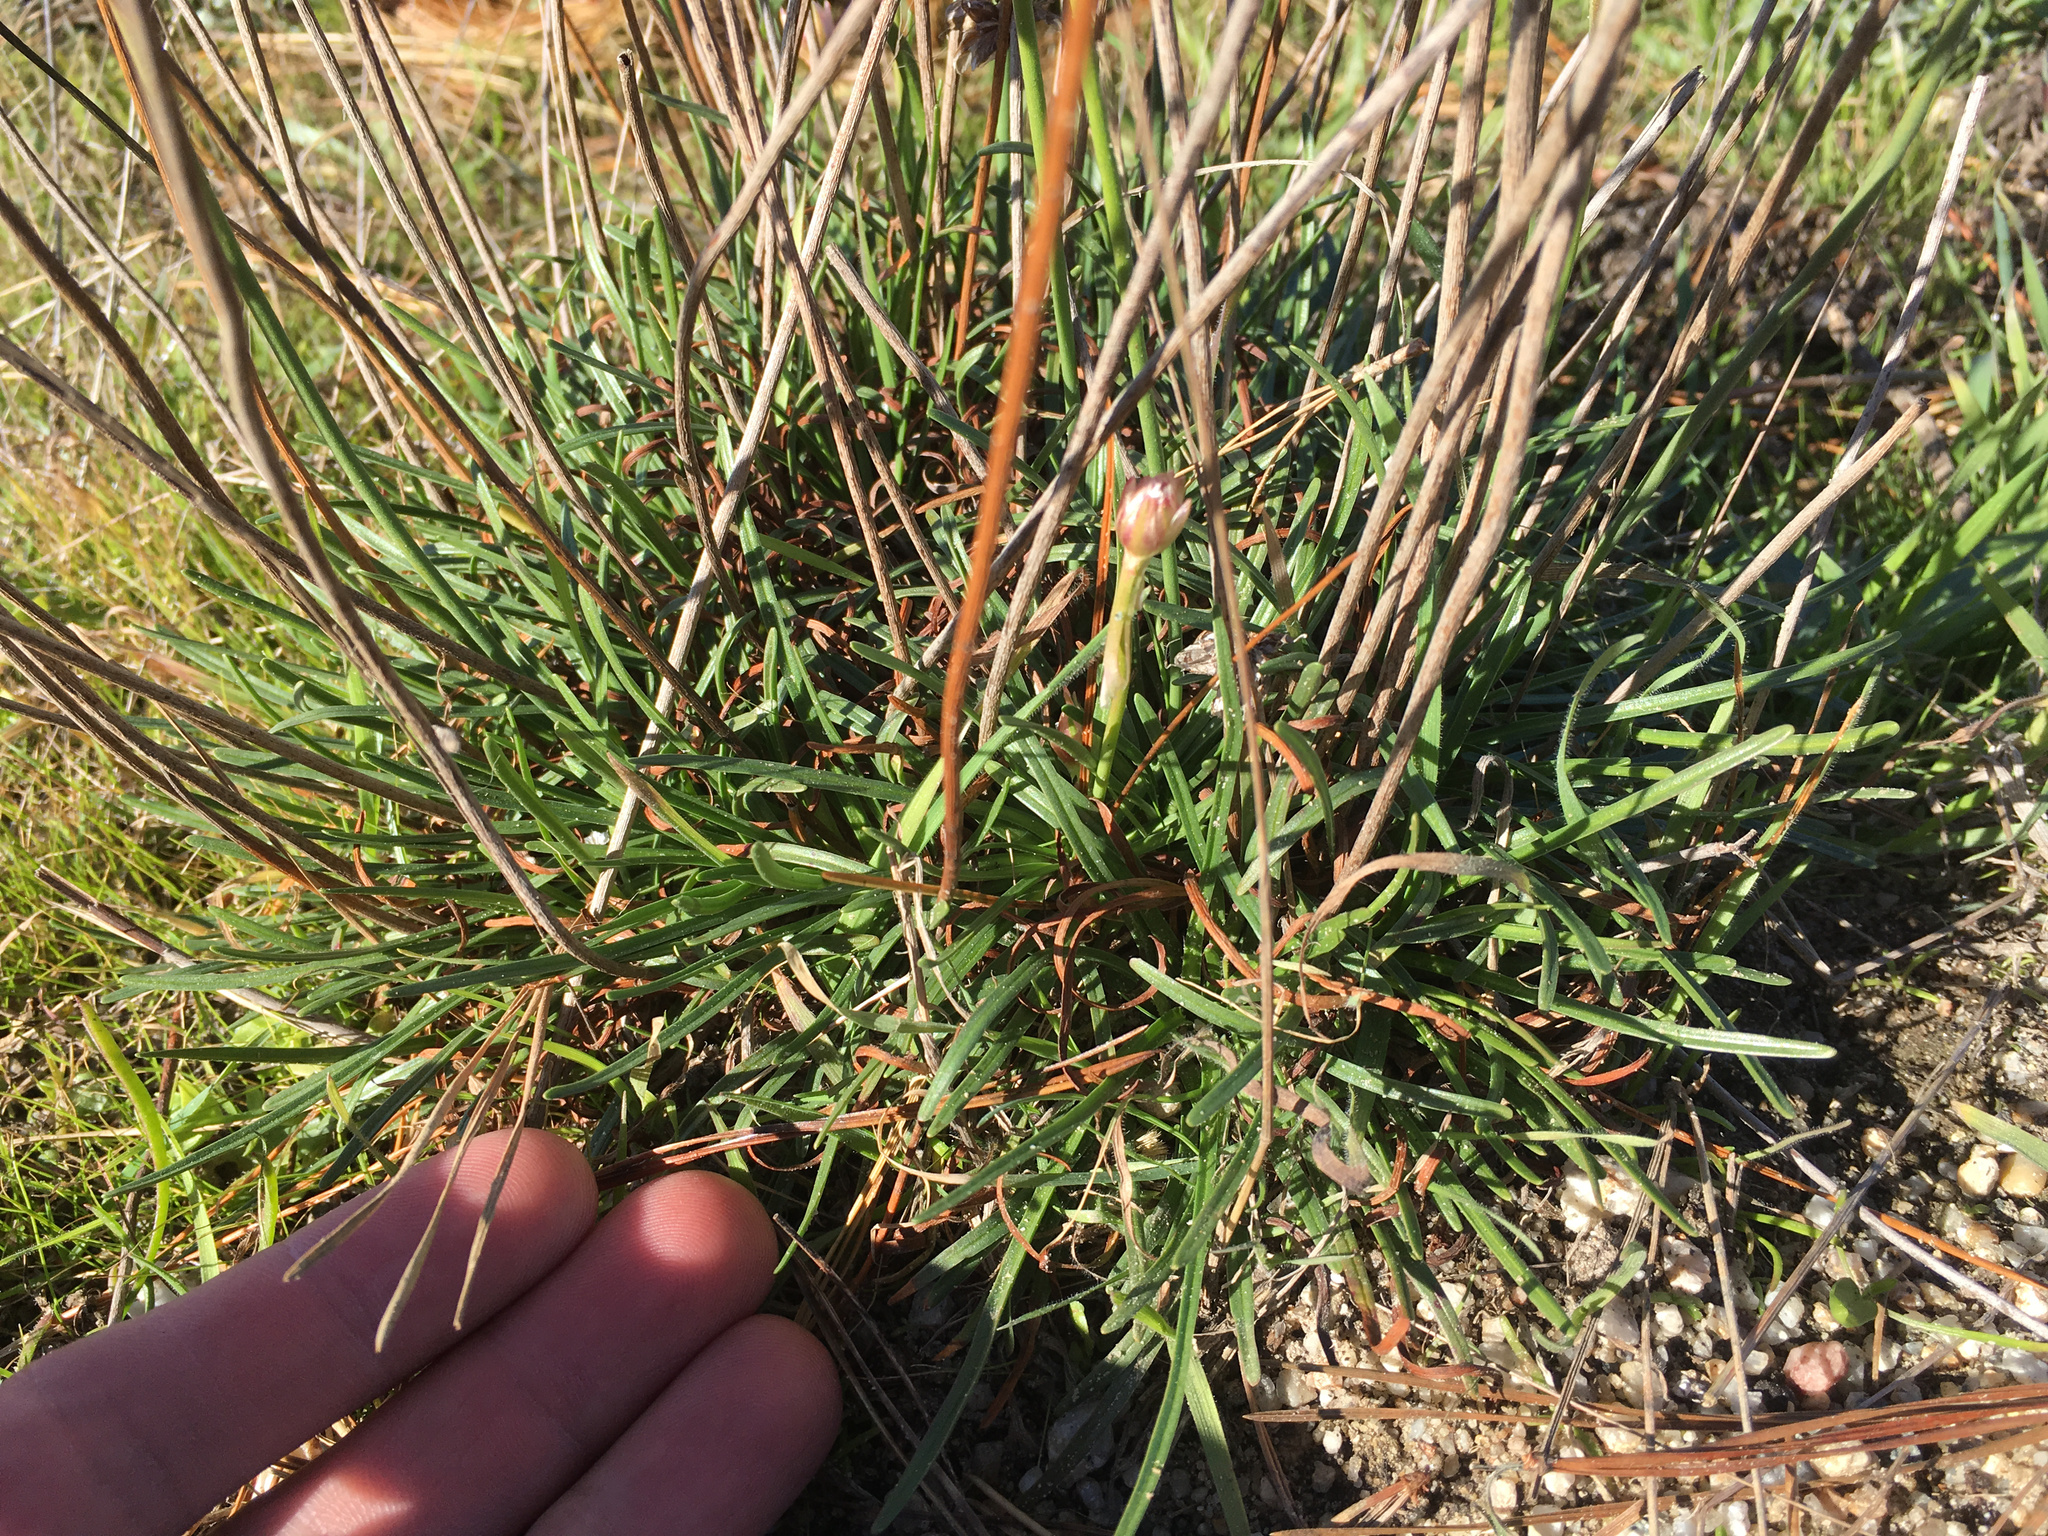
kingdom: Plantae
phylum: Tracheophyta
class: Magnoliopsida
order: Caryophyllales
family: Plumbaginaceae
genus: Armeria
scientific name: Armeria maritima
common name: Thrift
